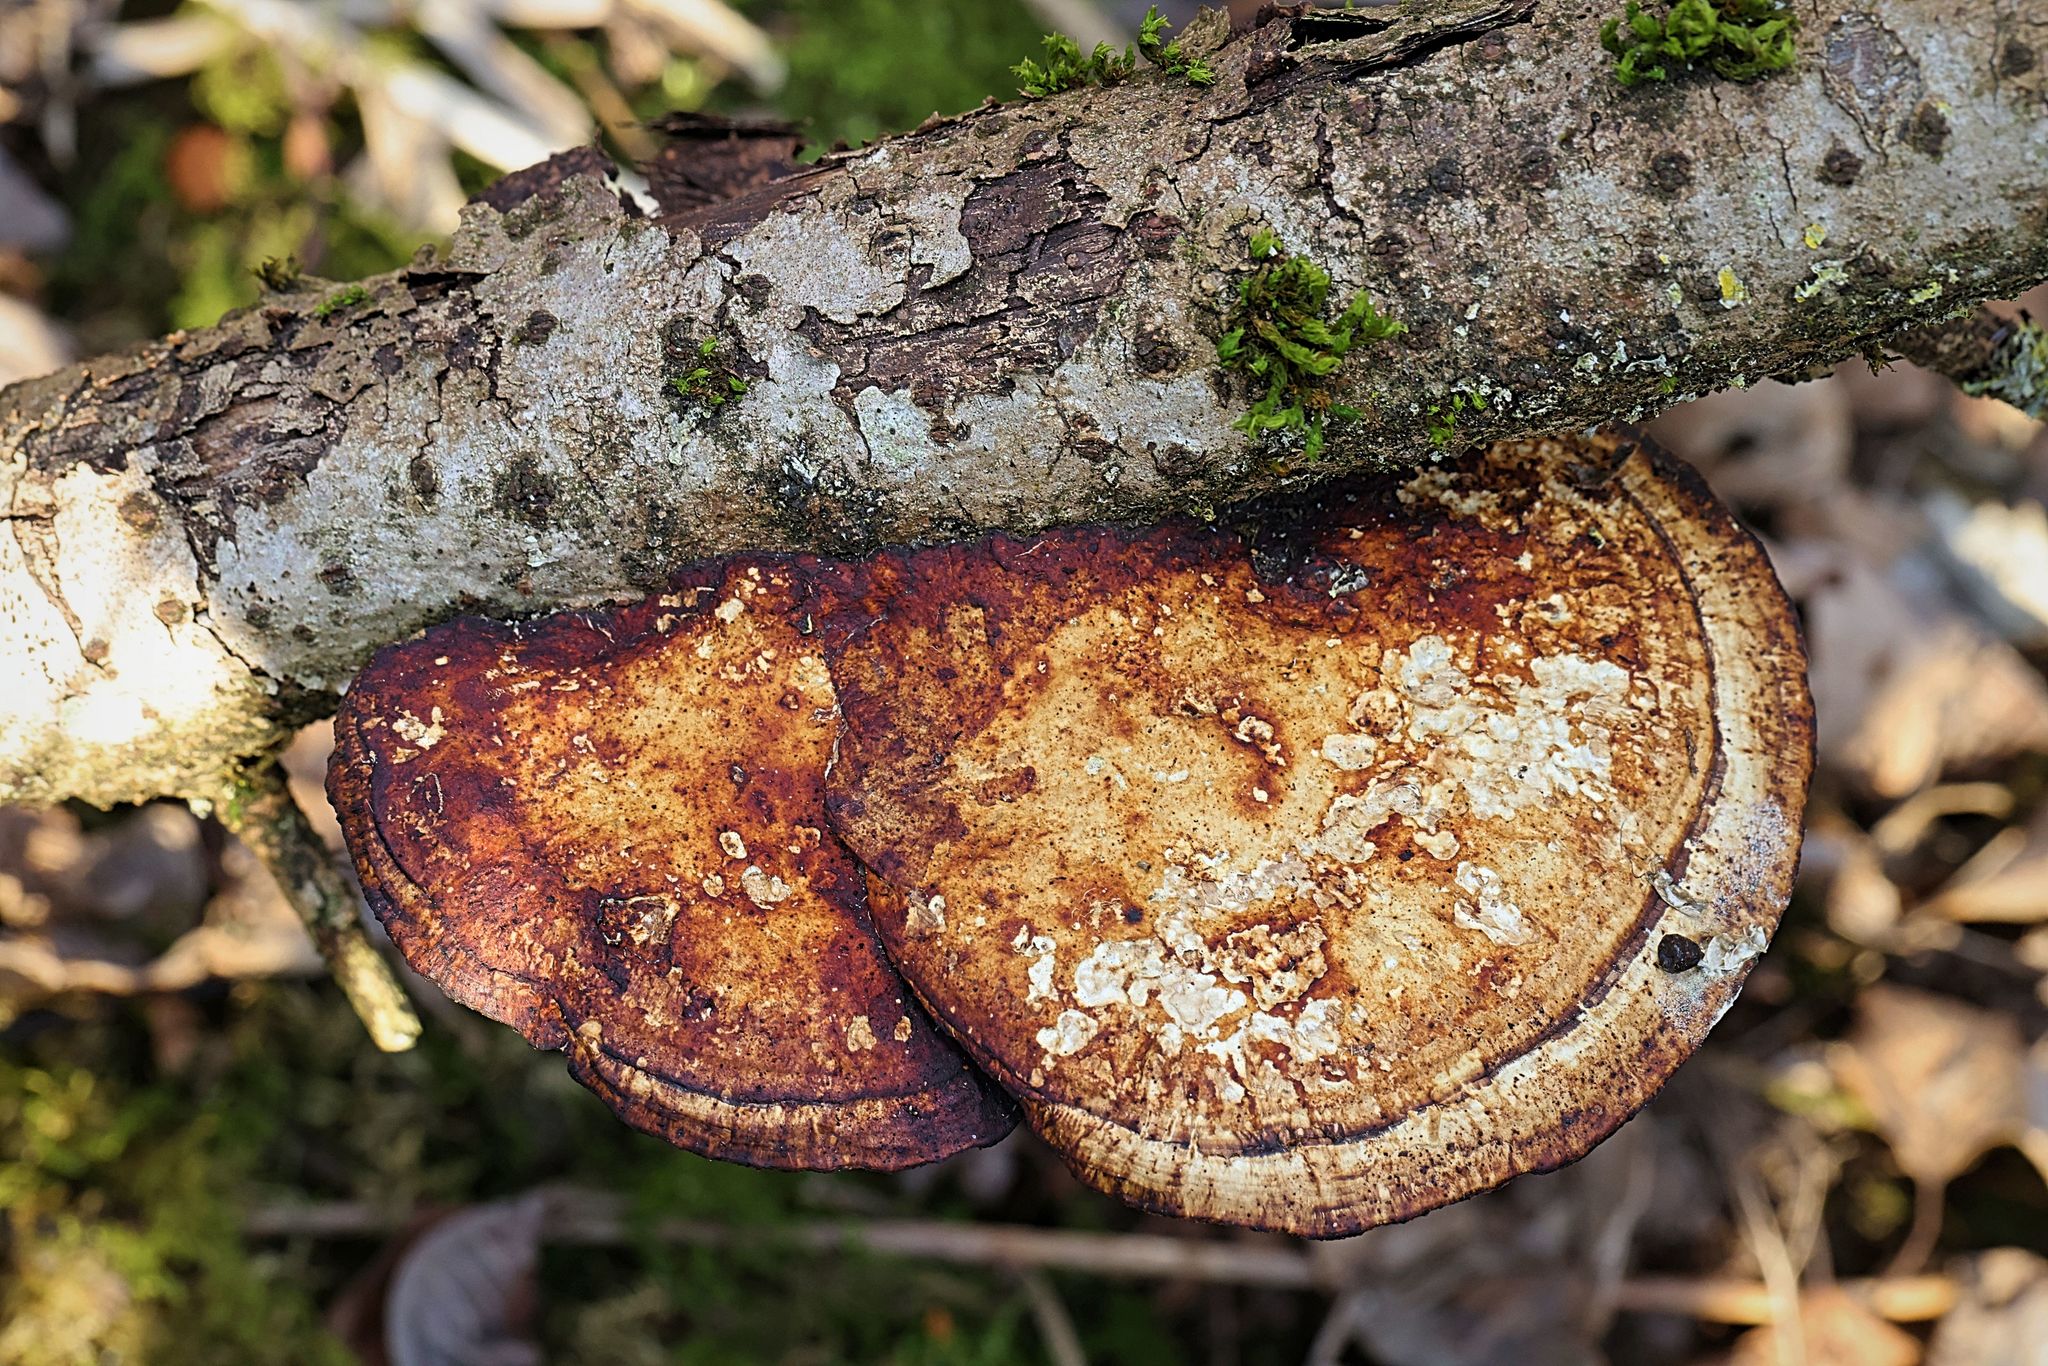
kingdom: Fungi
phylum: Basidiomycota
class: Agaricomycetes
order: Polyporales
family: Polyporaceae
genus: Daedaleopsis
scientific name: Daedaleopsis confragosa
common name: Blushing bracket
